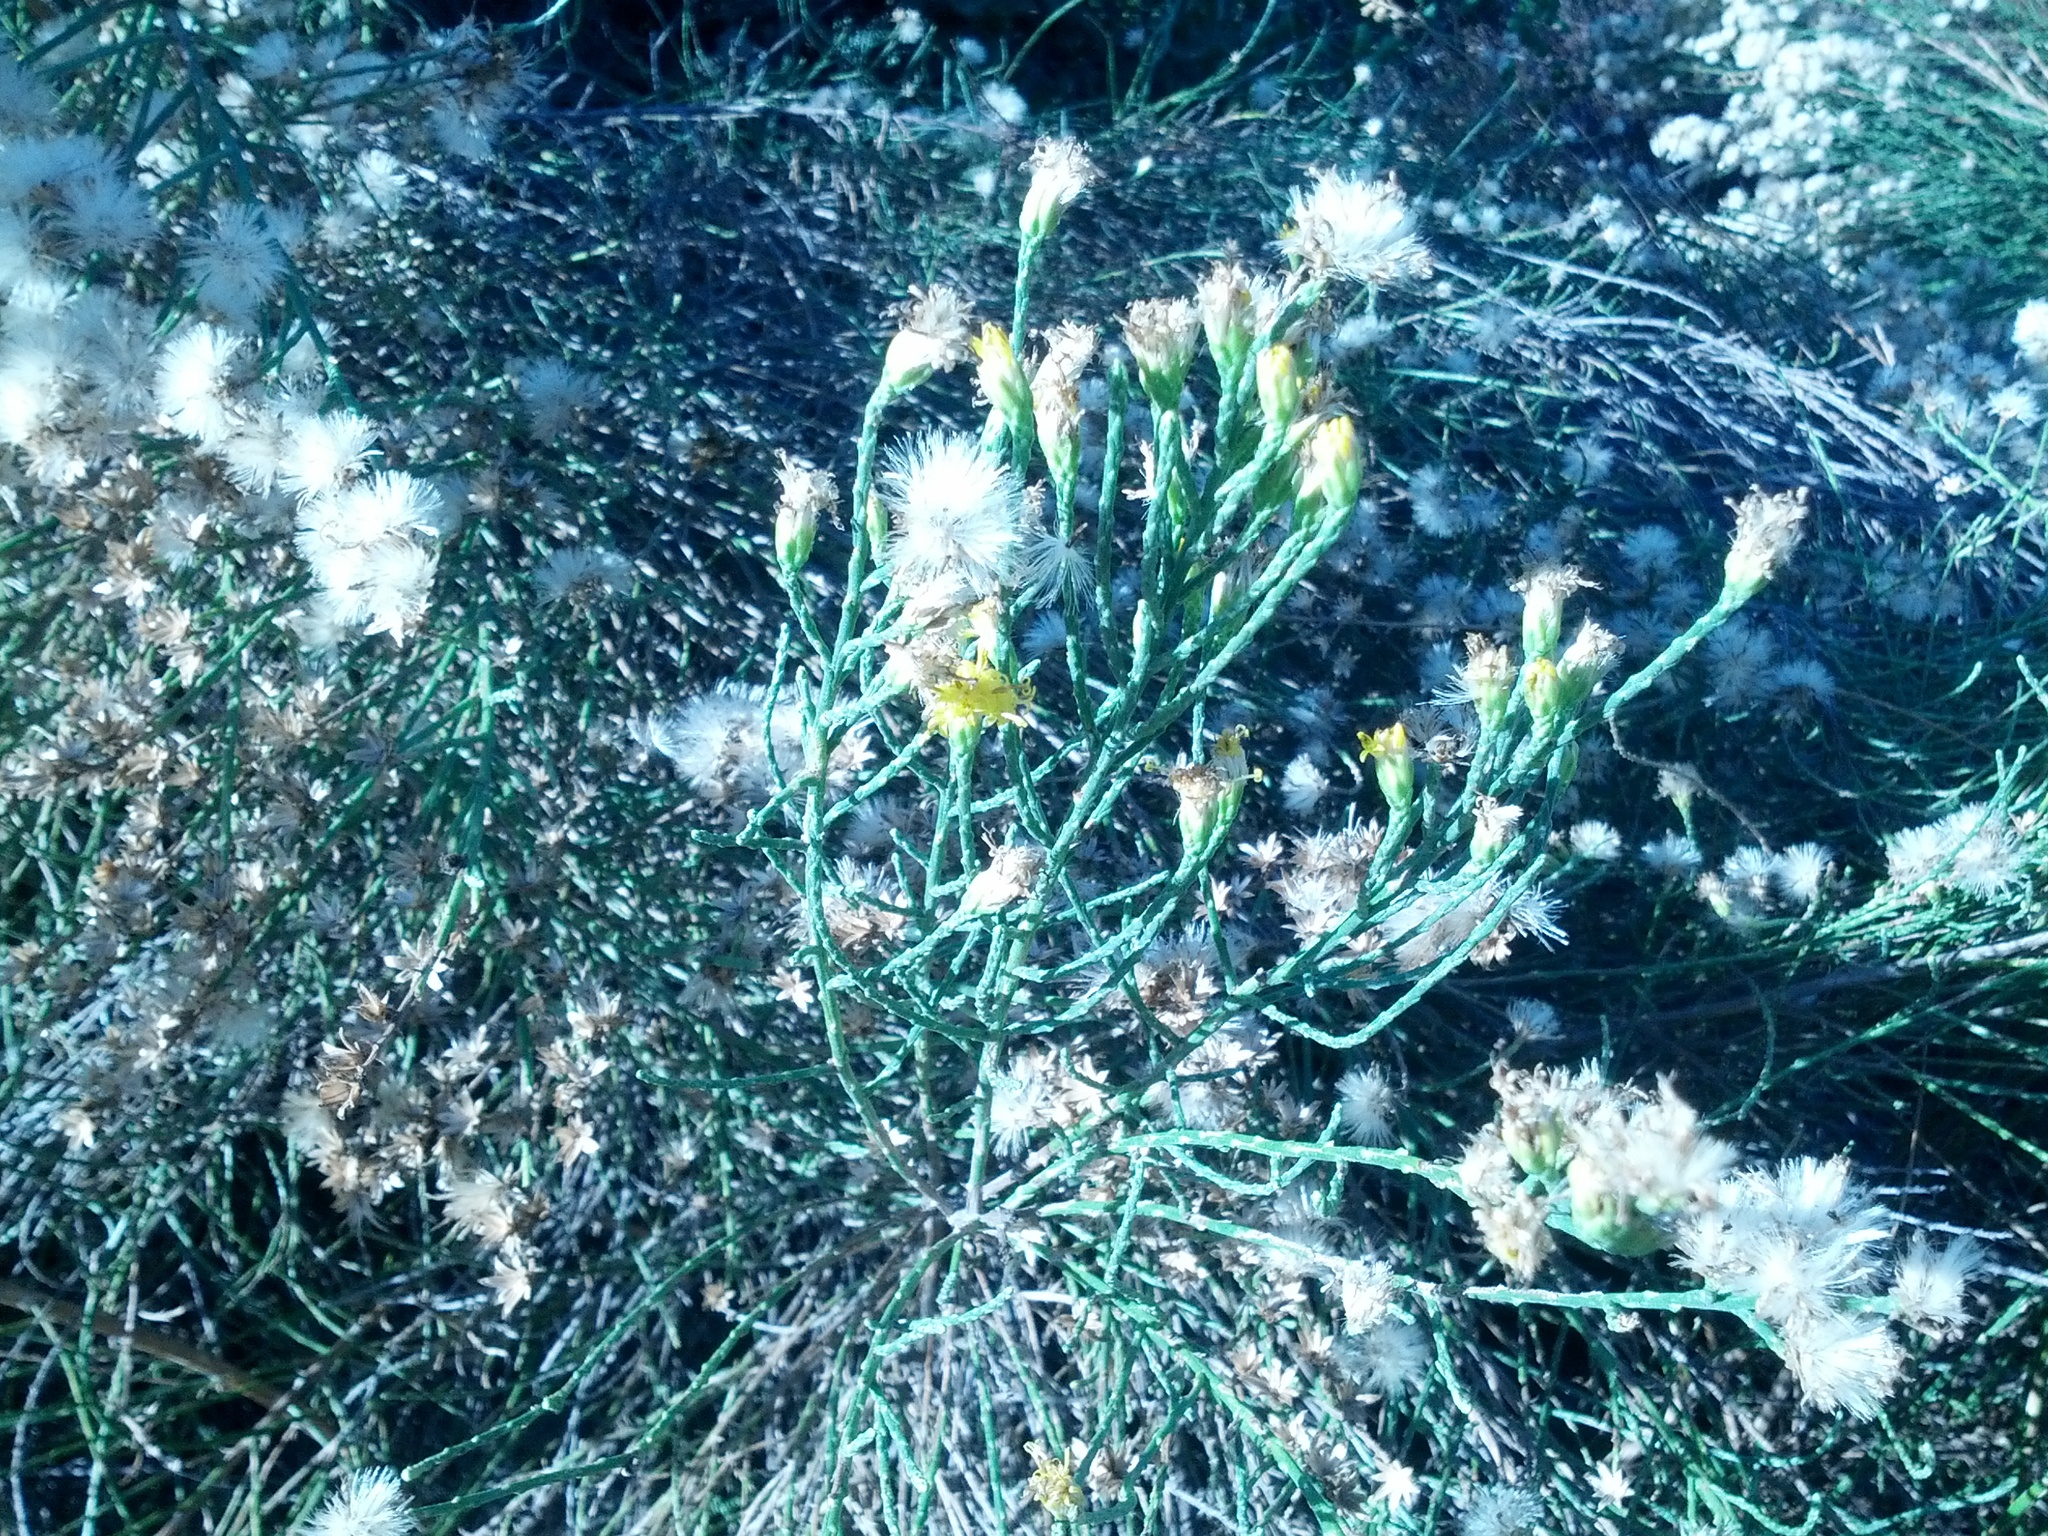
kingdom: Plantae
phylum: Tracheophyta
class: Magnoliopsida
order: Asterales
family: Asteraceae
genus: Lepidospartum
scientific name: Lepidospartum squamatum
